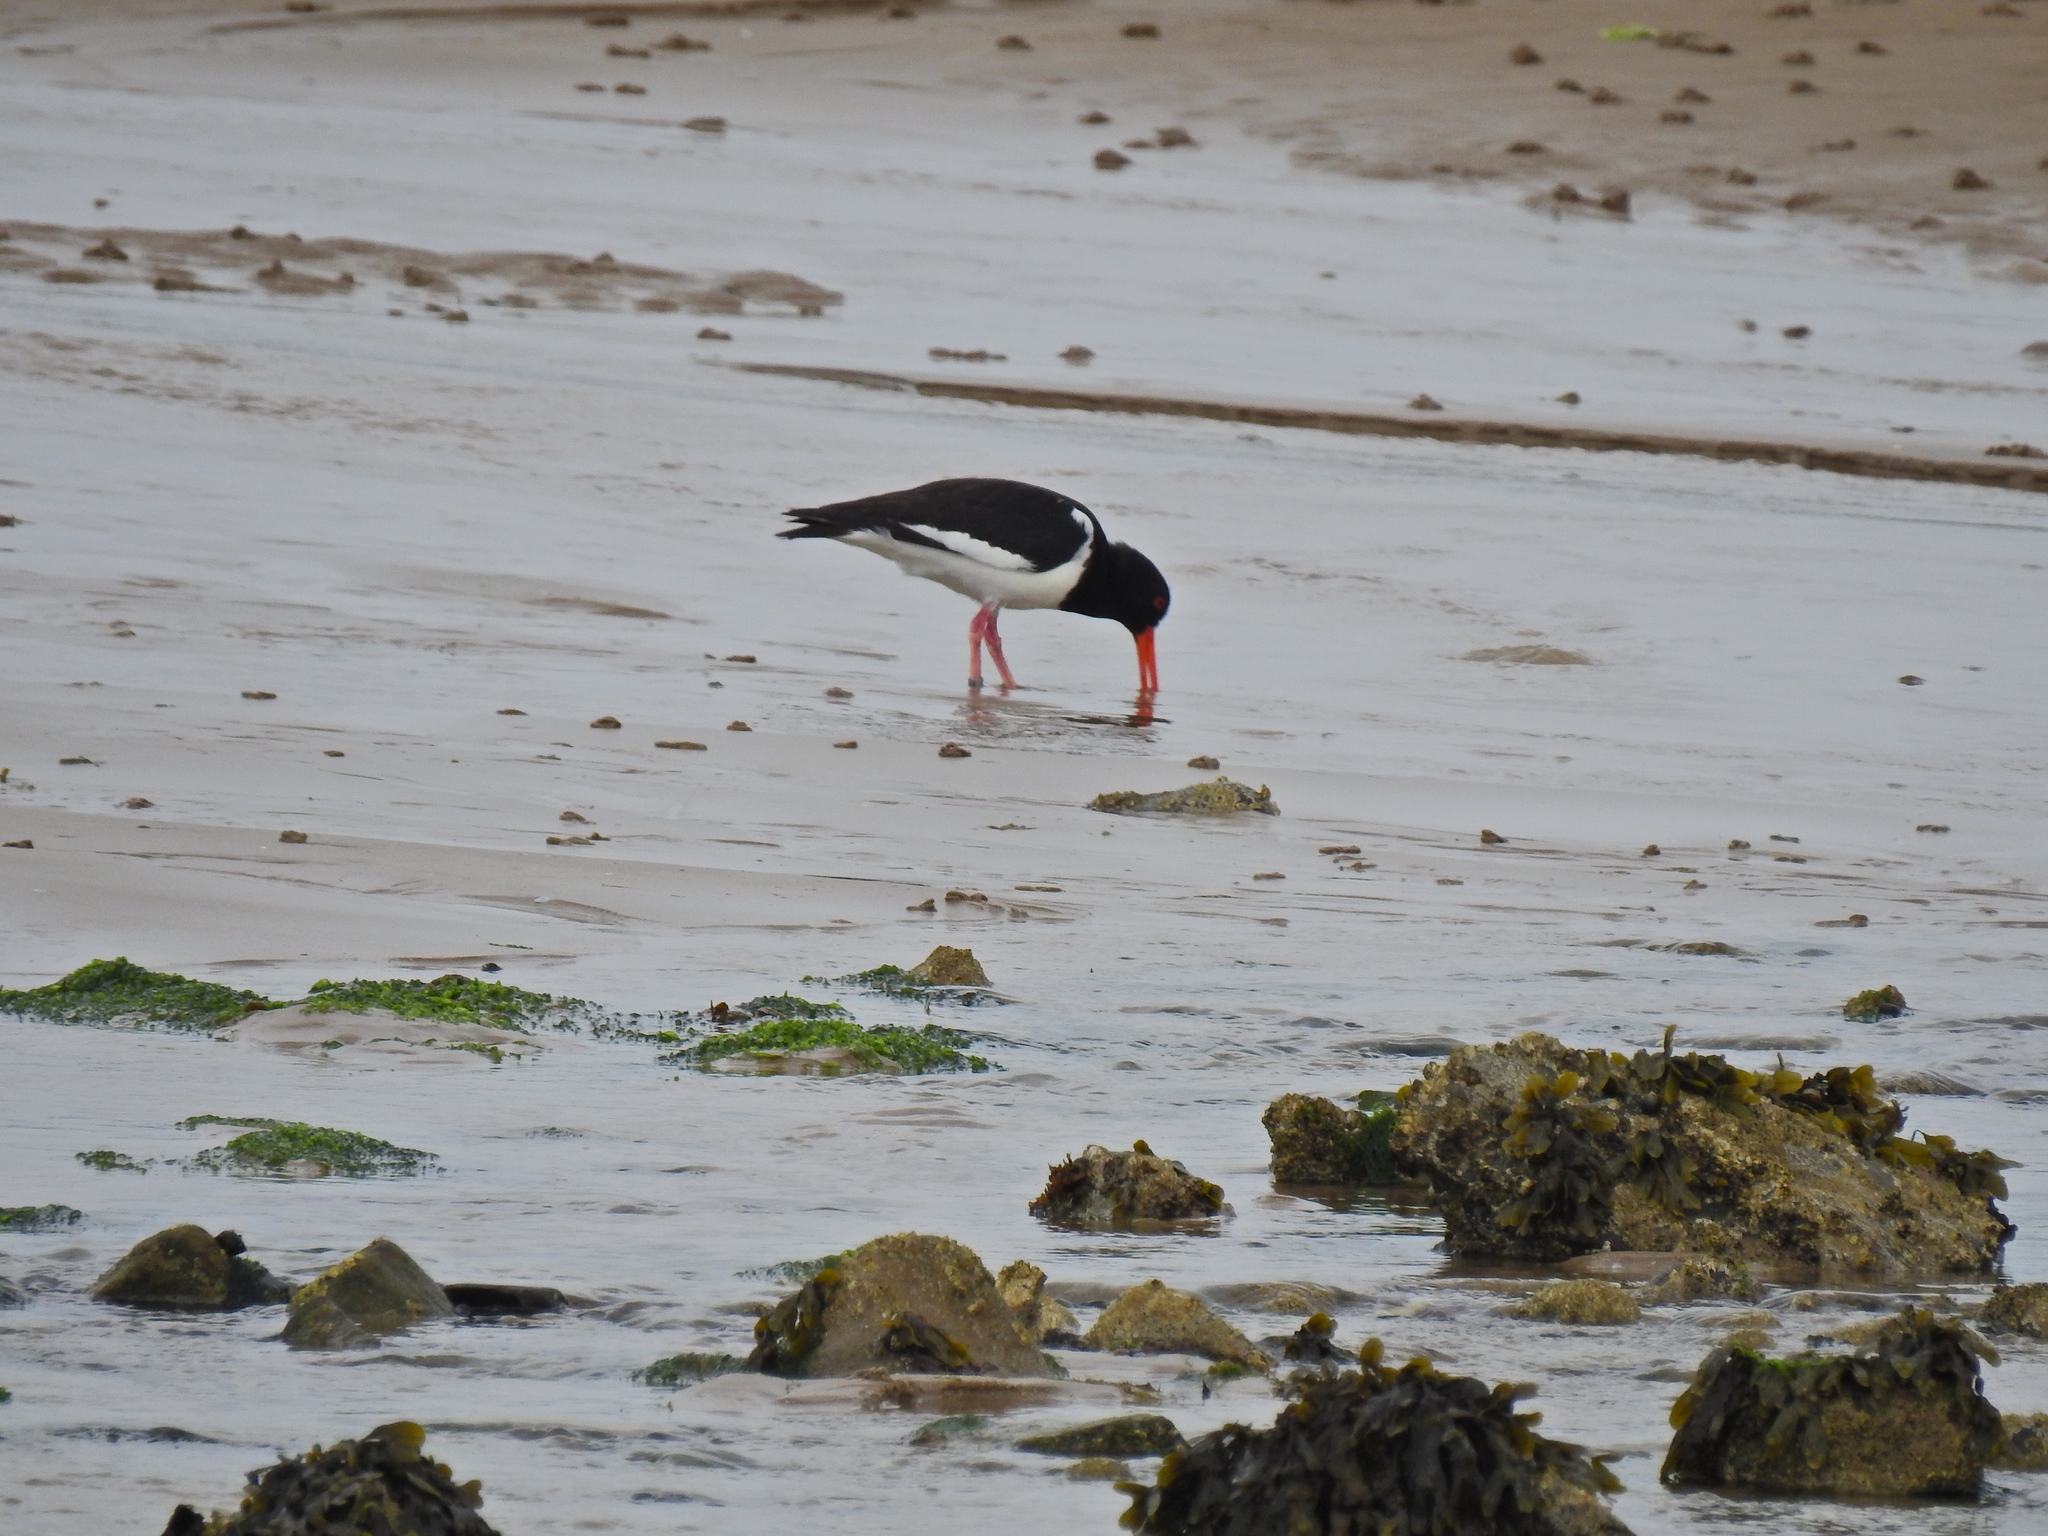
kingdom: Animalia
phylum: Chordata
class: Aves
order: Charadriiformes
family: Haematopodidae
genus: Haematopus
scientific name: Haematopus ostralegus
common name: Eurasian oystercatcher
